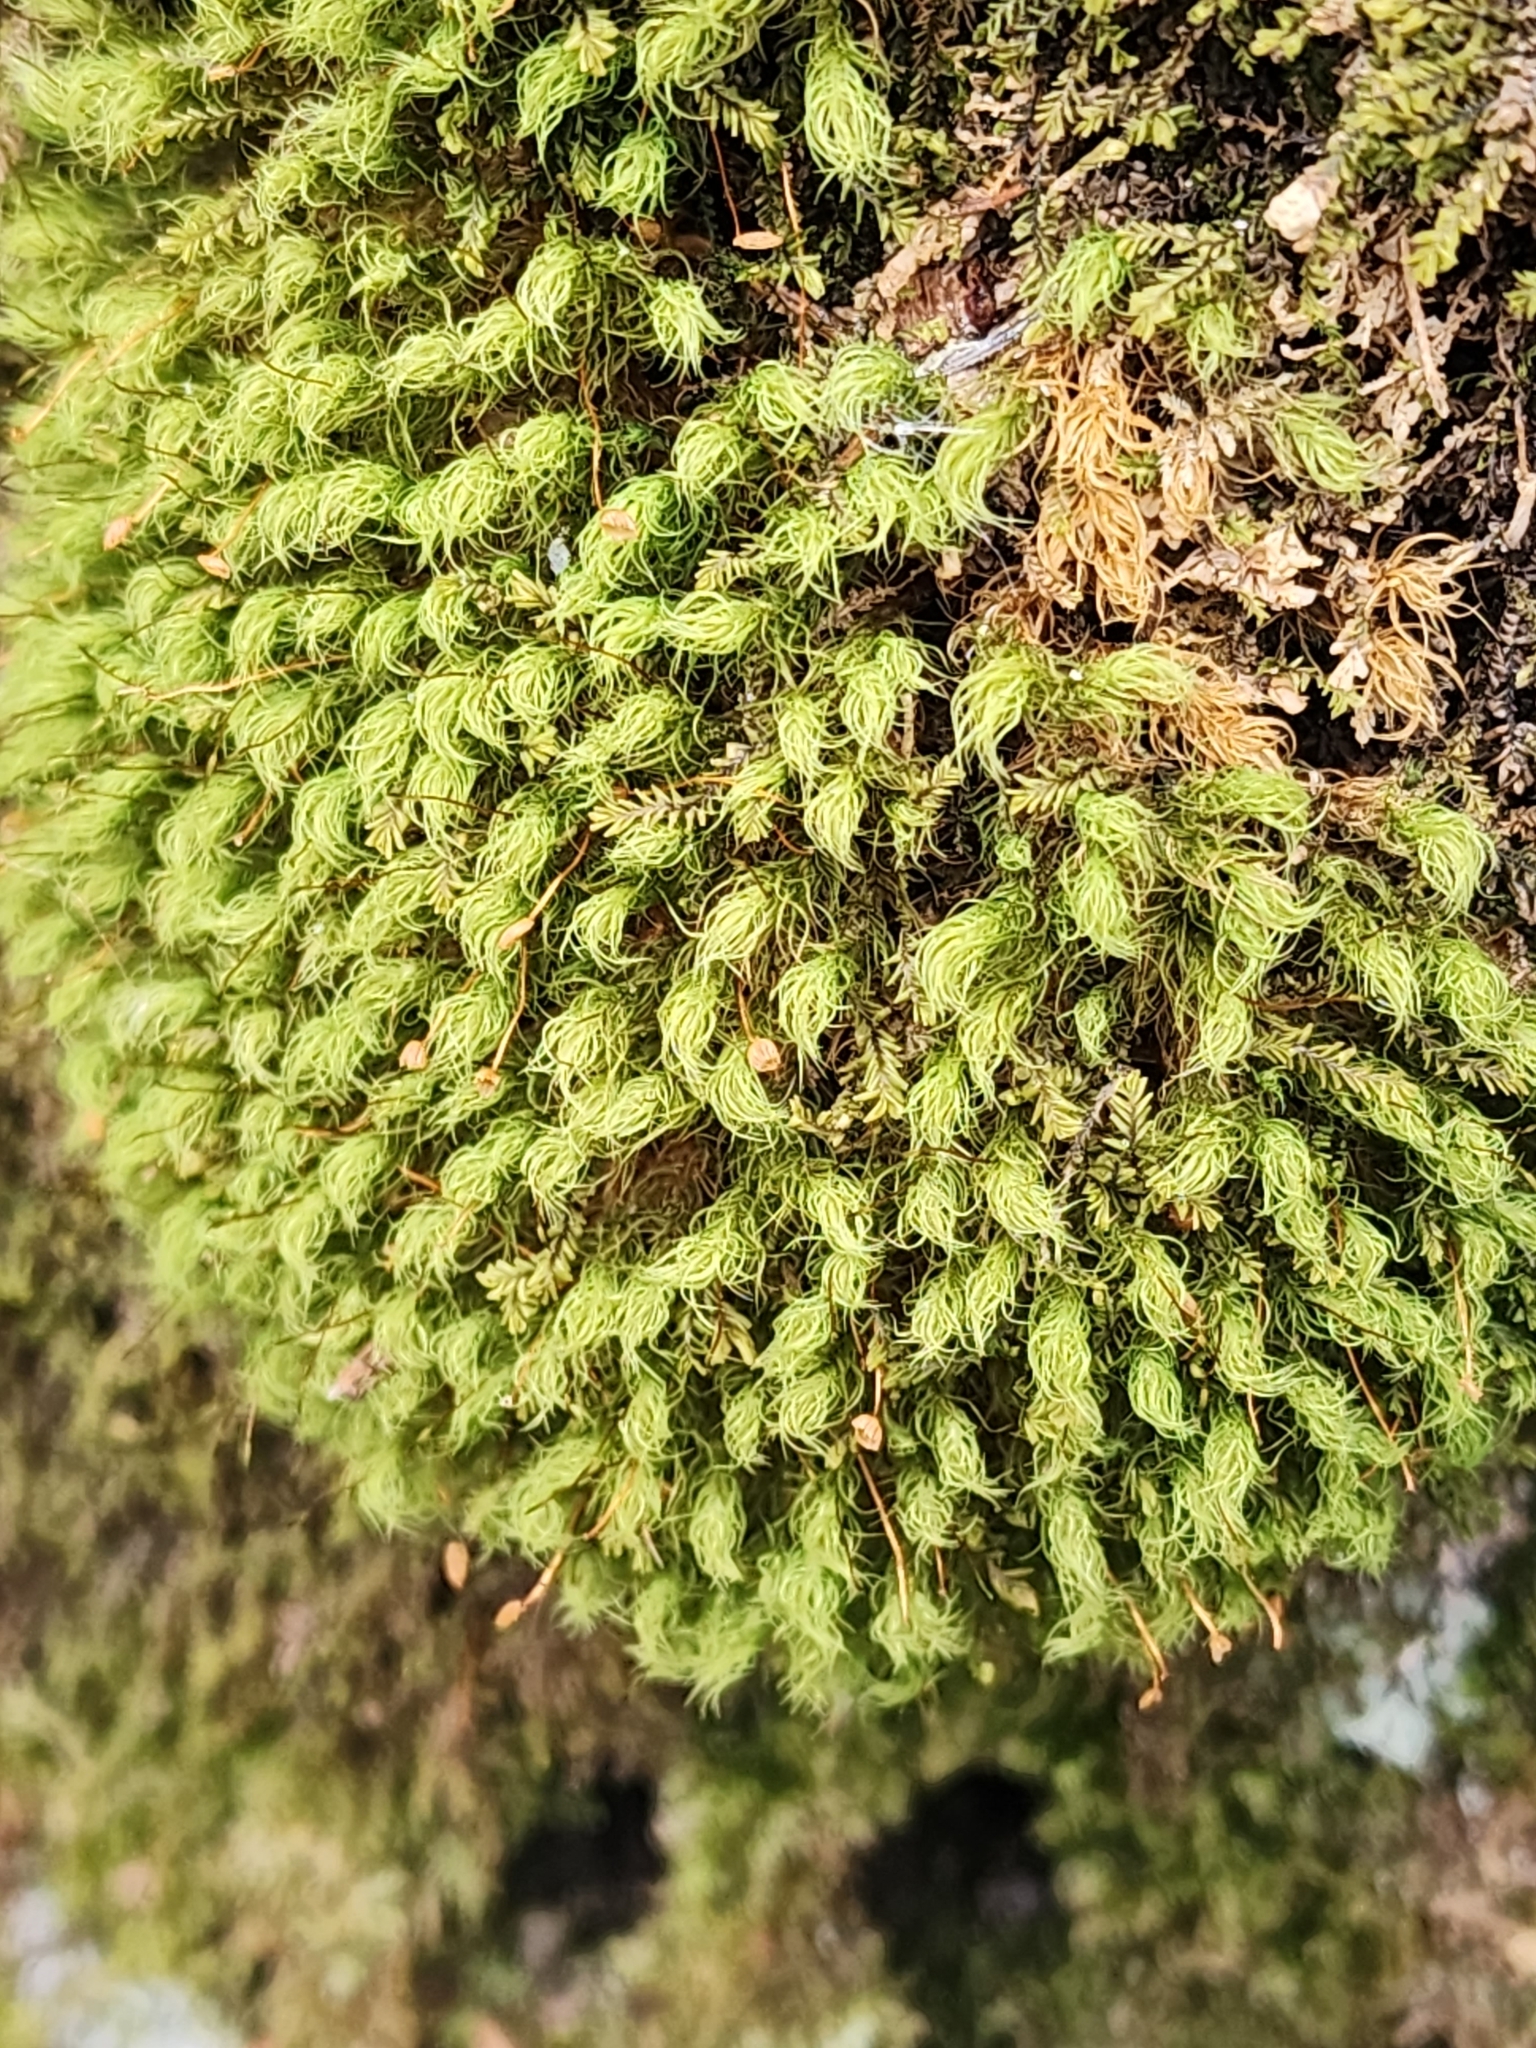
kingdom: Plantae
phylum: Bryophyta
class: Bryopsida
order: Bartramiales
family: Bartramiaceae
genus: Bartramia
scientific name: Bartramia ithyphylla
